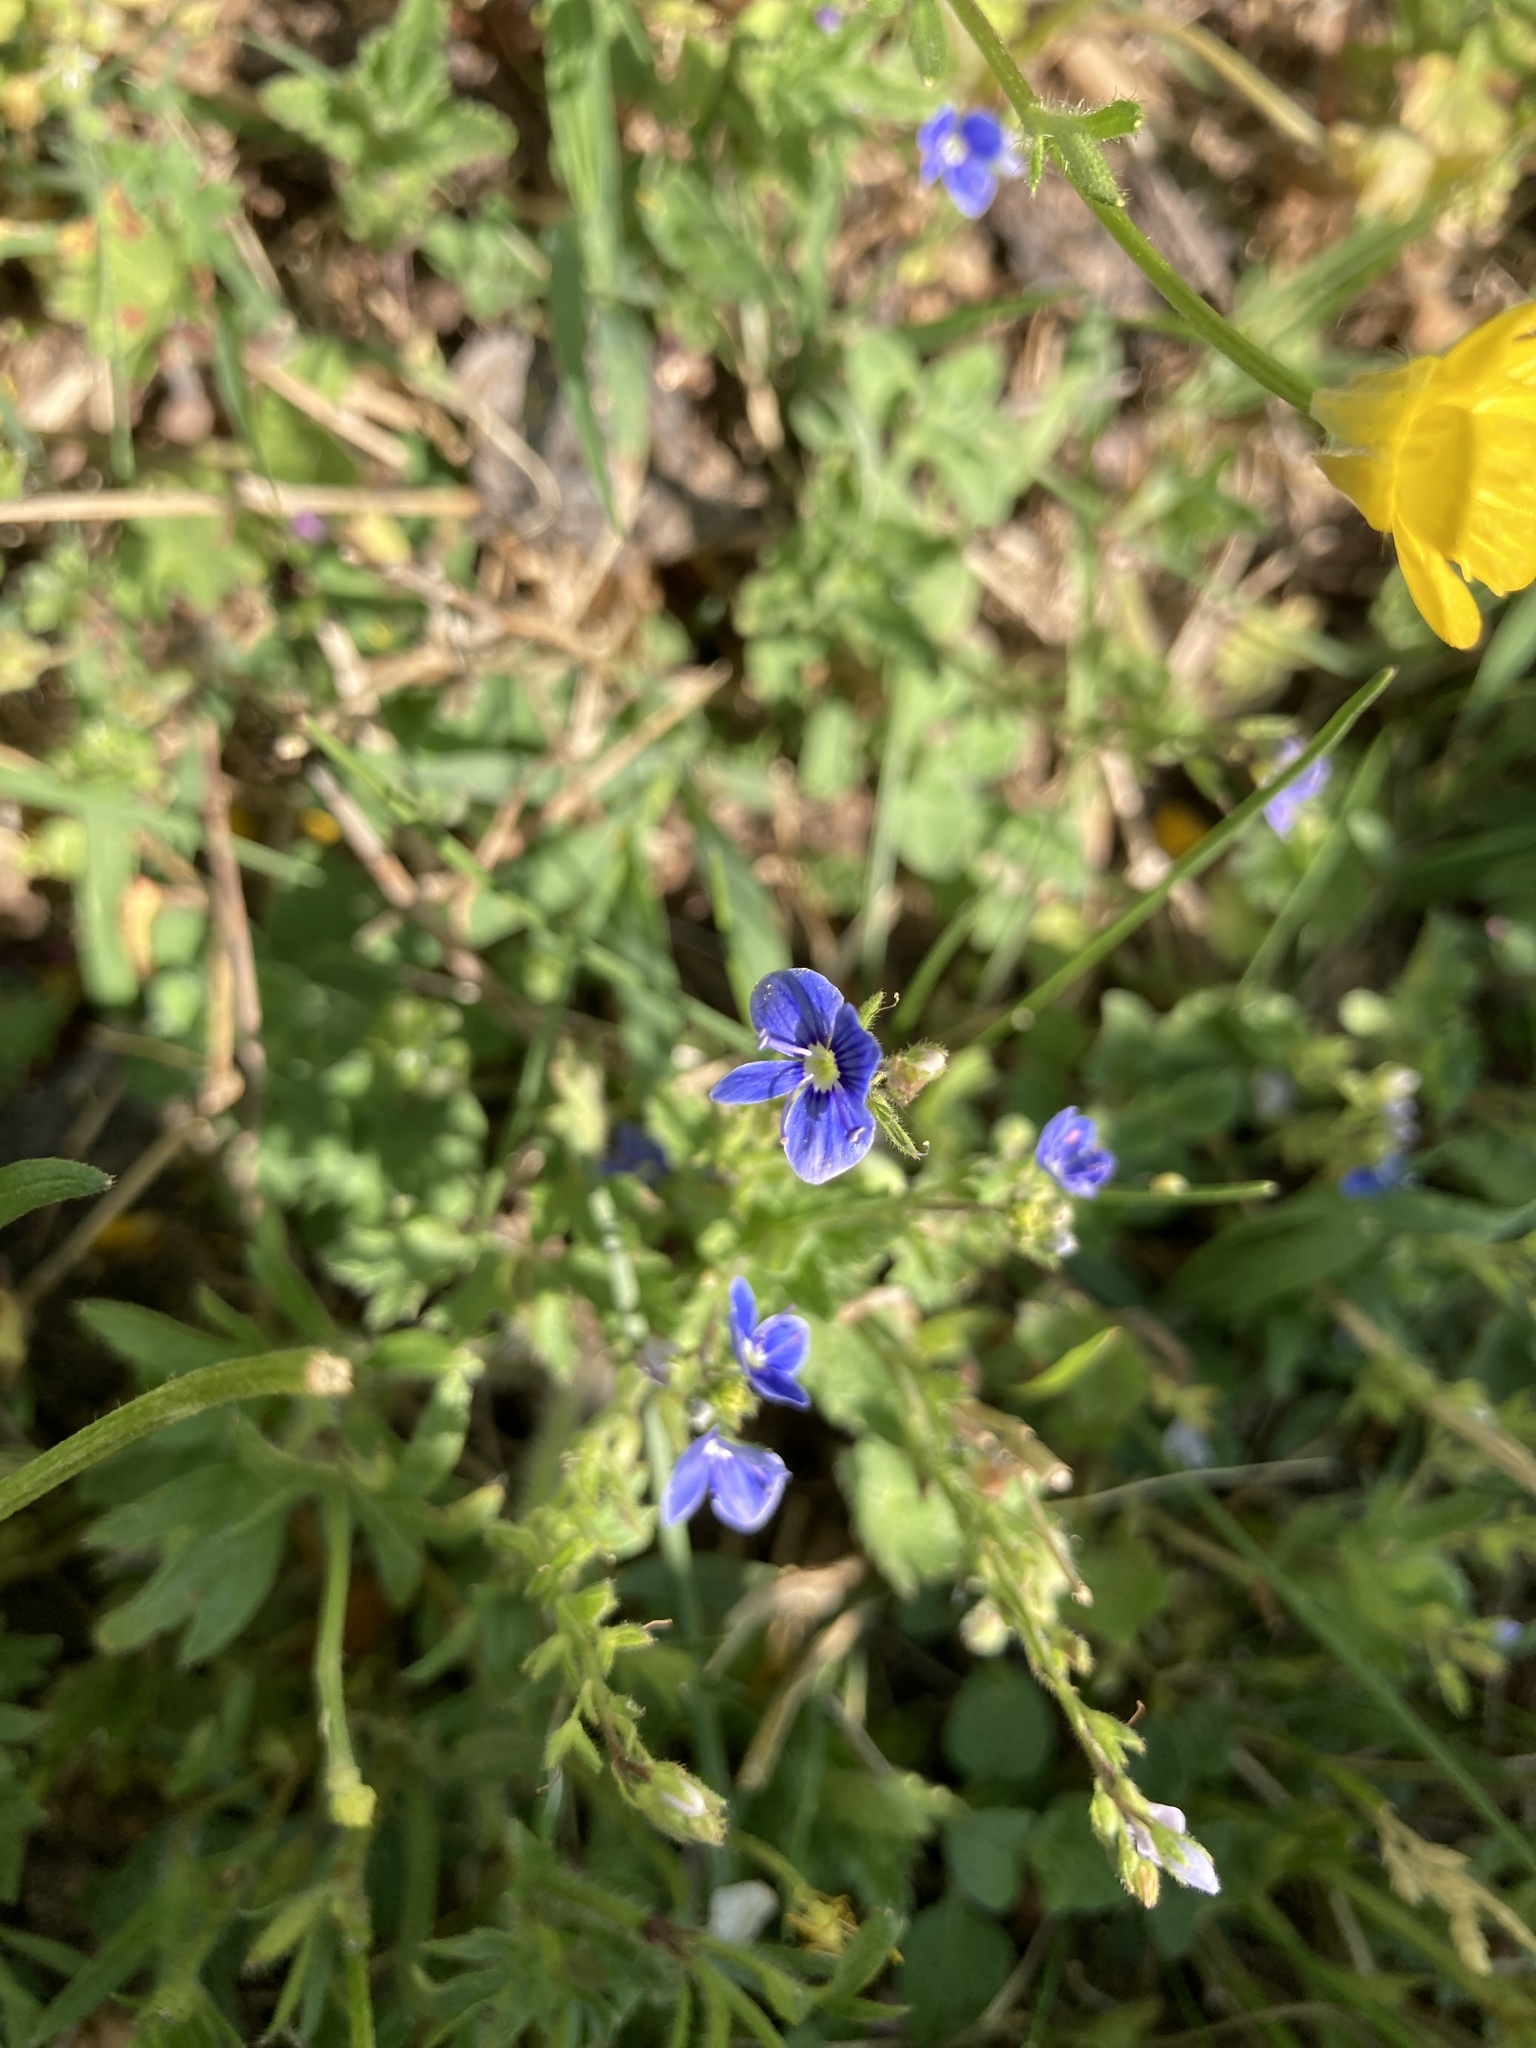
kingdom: Plantae
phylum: Tracheophyta
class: Magnoliopsida
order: Lamiales
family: Plantaginaceae
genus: Veronica
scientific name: Veronica chamaedrys
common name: Germander speedwell
